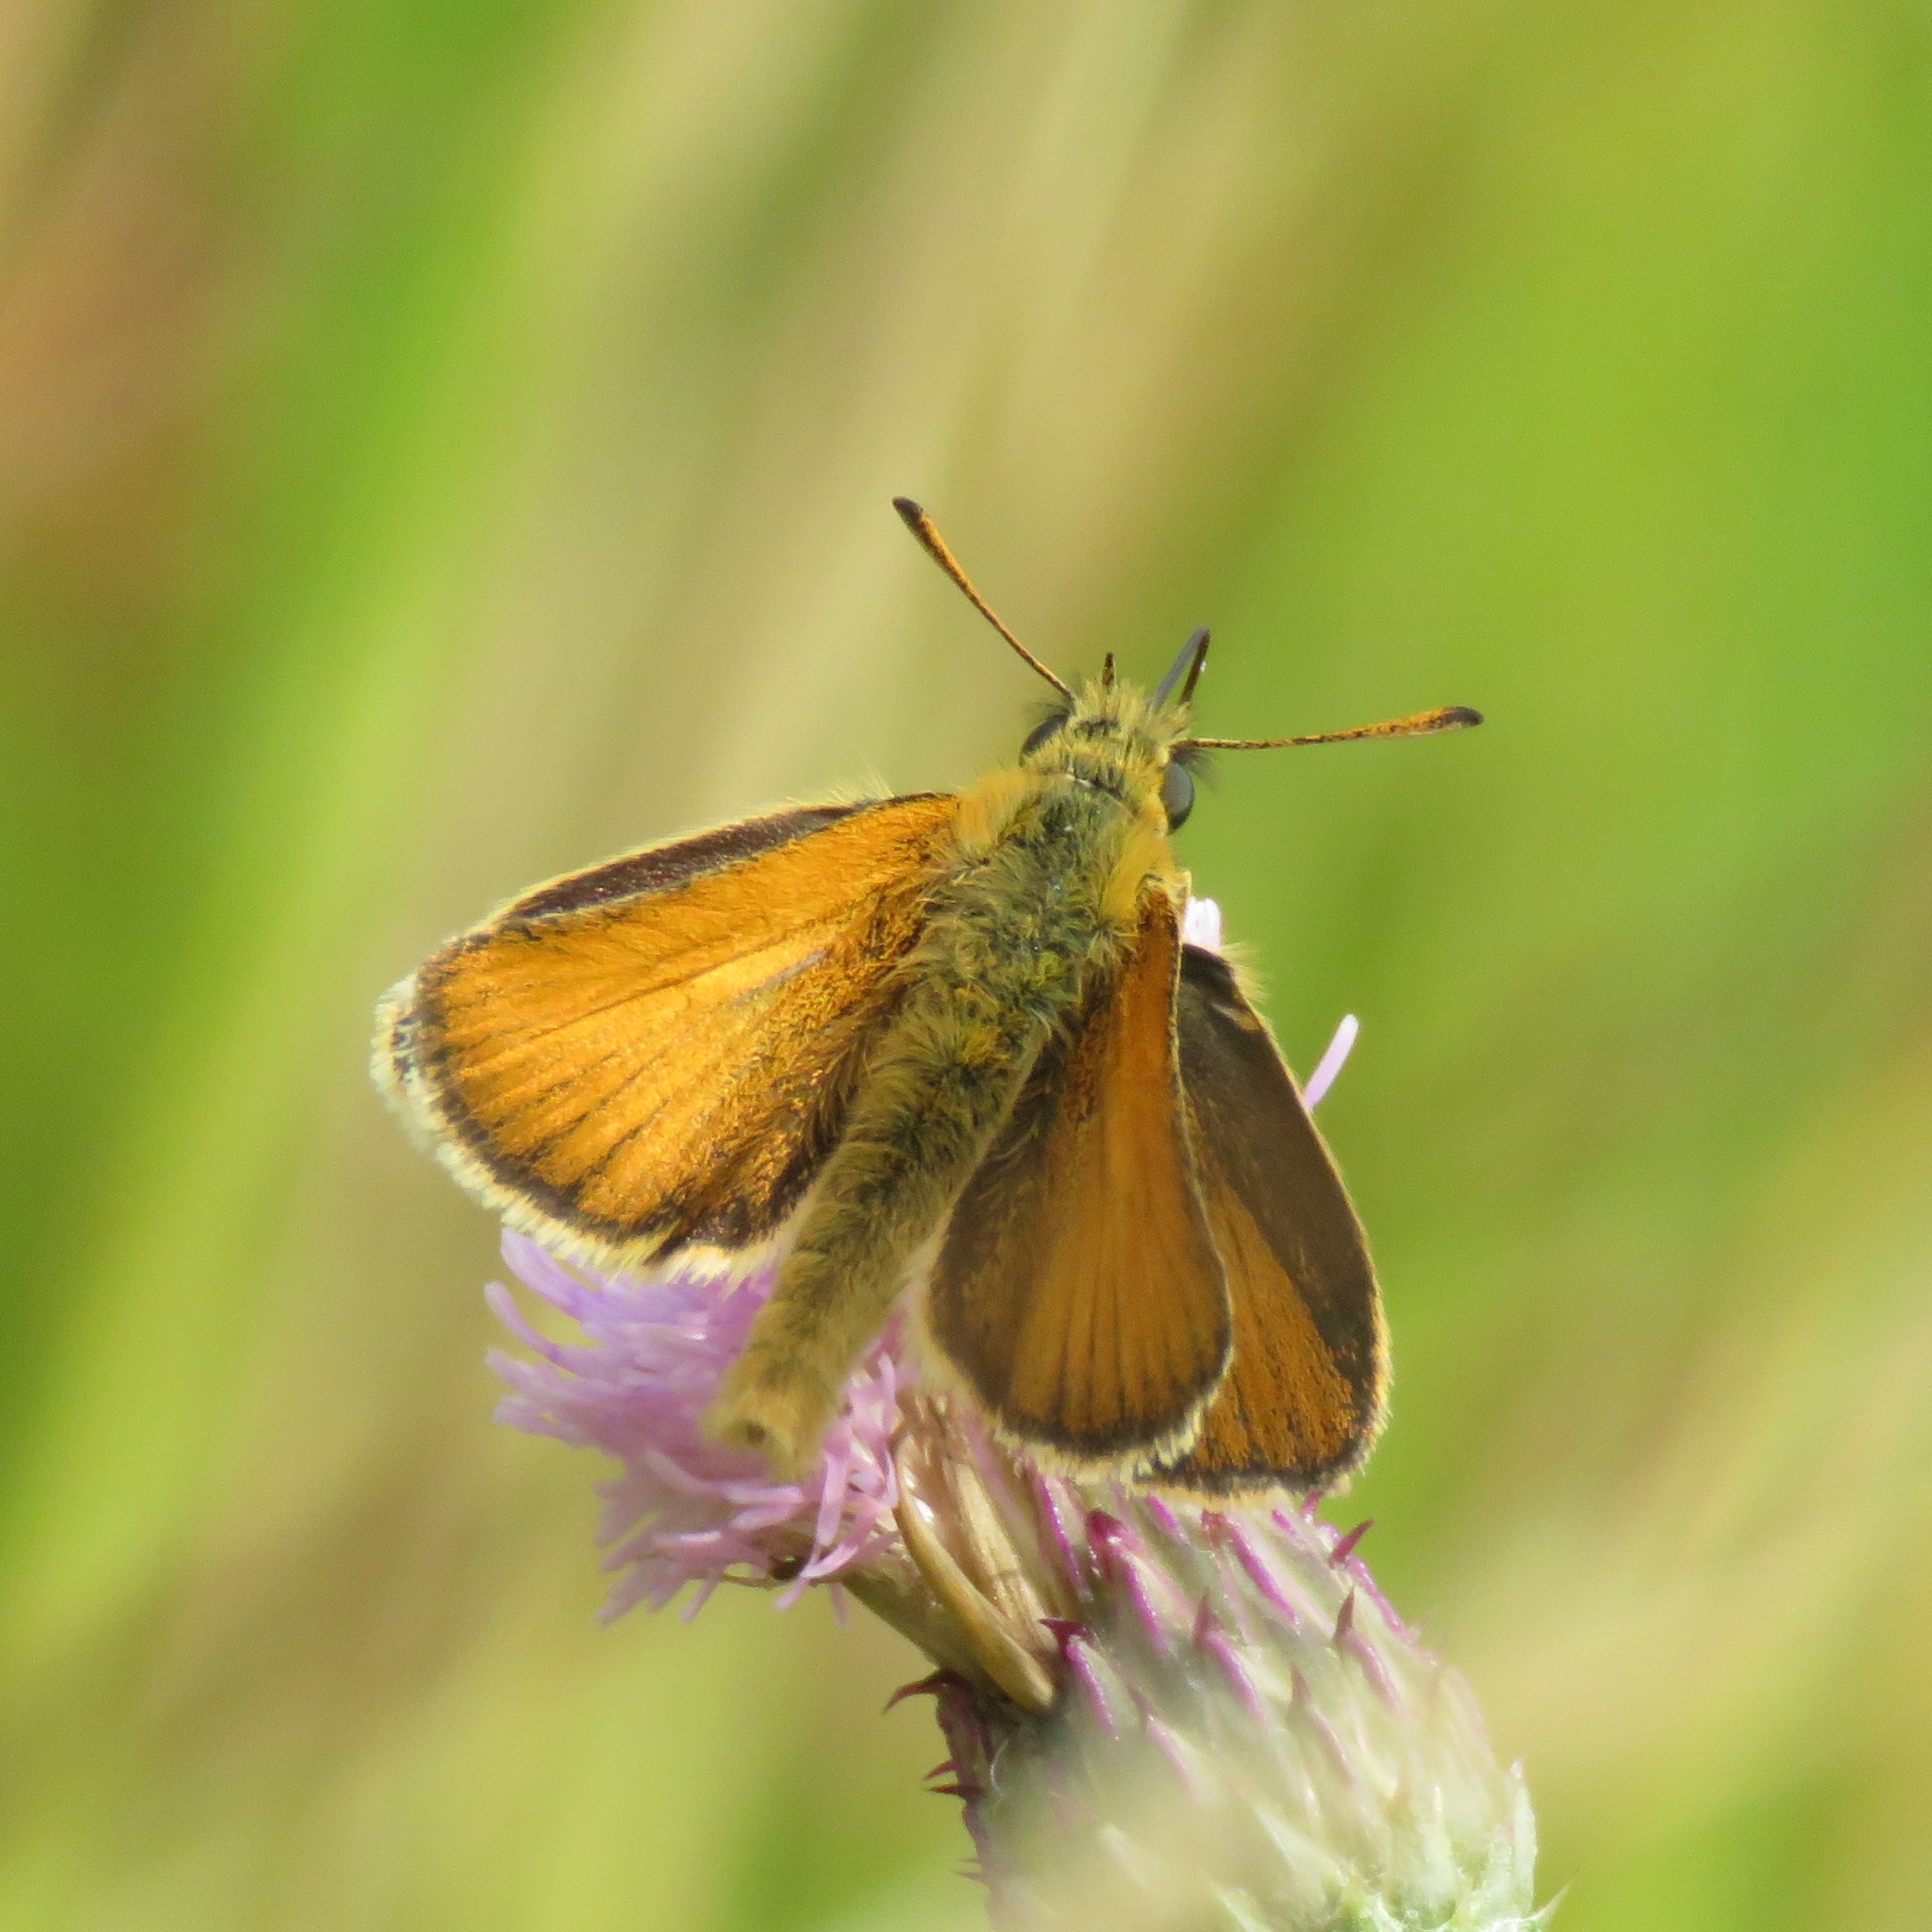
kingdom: Animalia
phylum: Arthropoda
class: Insecta
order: Lepidoptera
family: Hesperiidae
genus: Thymelicus
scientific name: Thymelicus lineola
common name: Essex skipper
